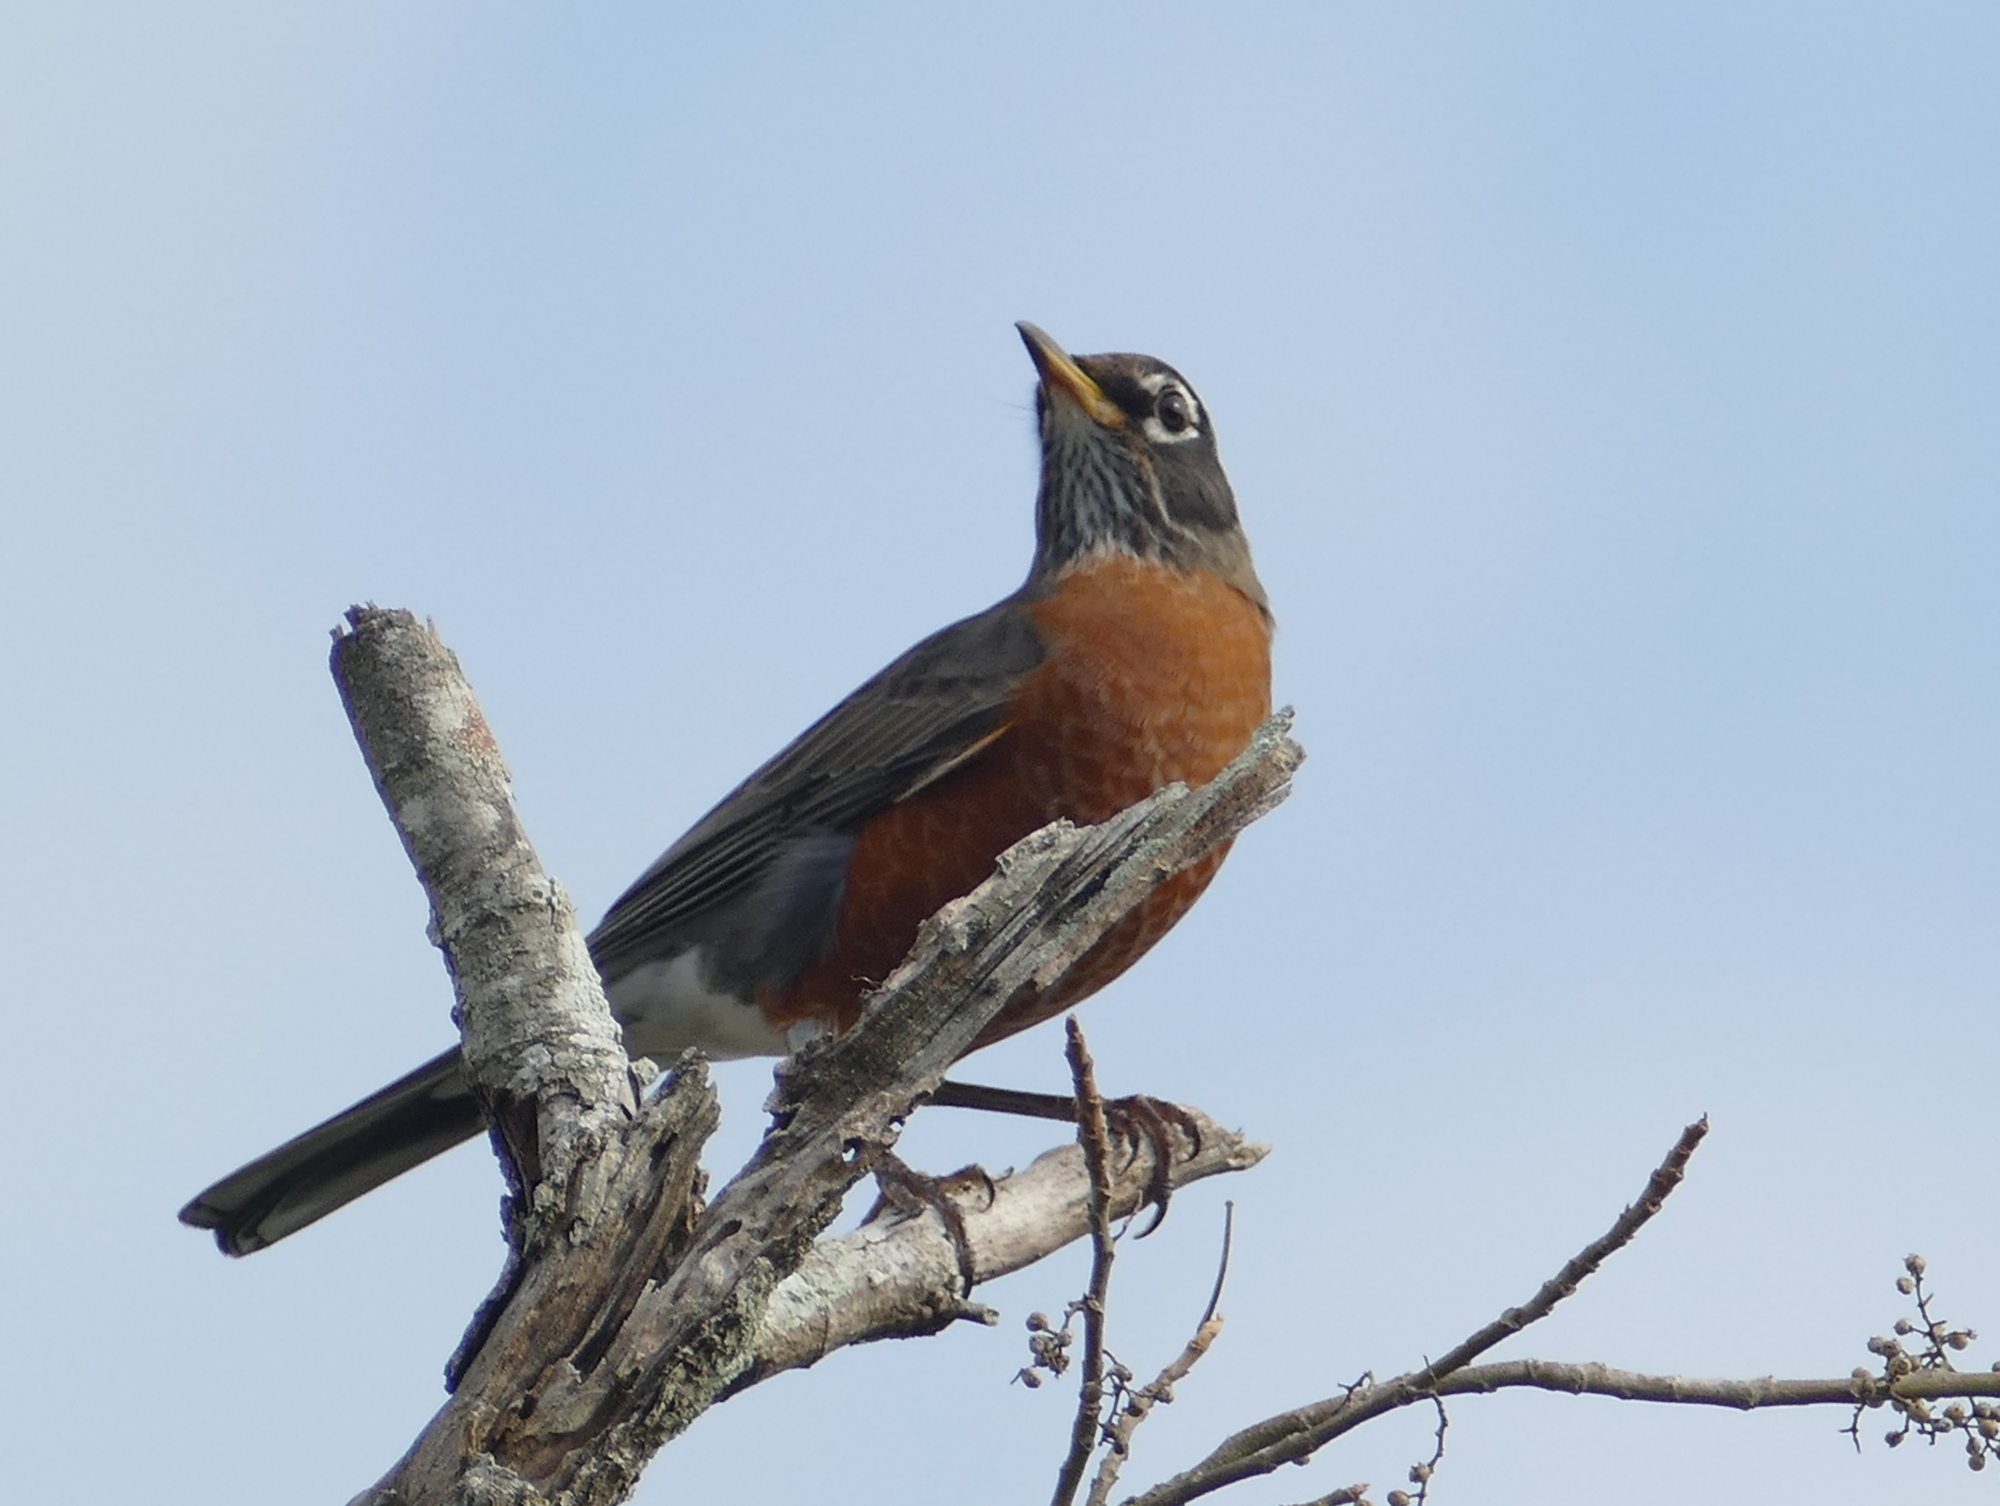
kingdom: Animalia
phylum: Chordata
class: Aves
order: Passeriformes
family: Turdidae
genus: Turdus
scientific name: Turdus migratorius
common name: American robin
